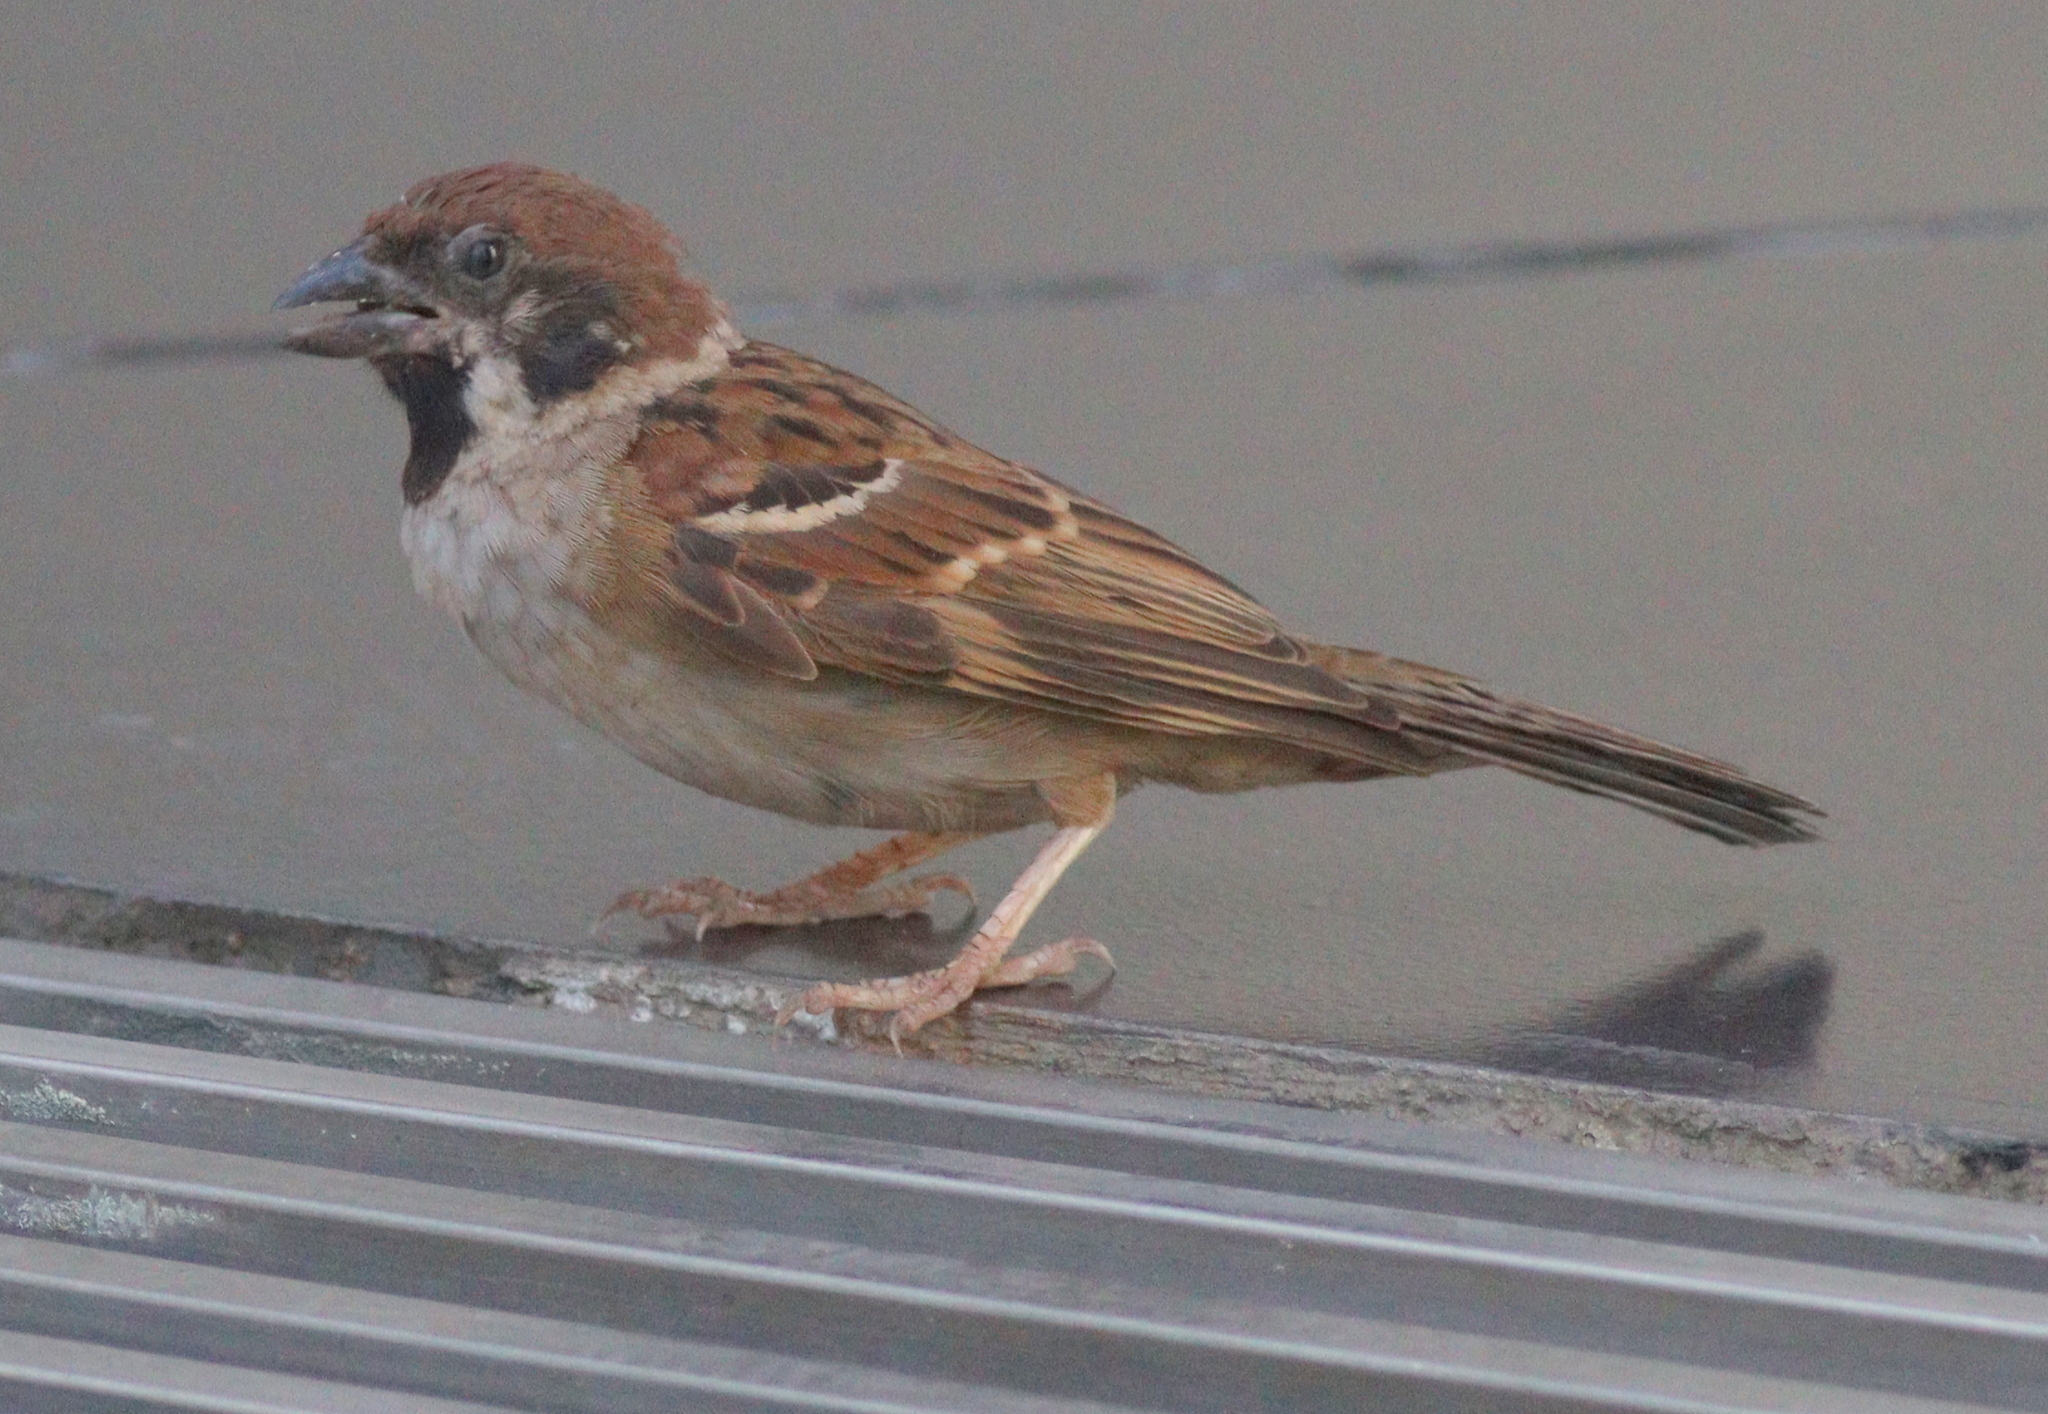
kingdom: Animalia
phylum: Chordata
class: Aves
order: Passeriformes
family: Passeridae
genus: Passer
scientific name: Passer montanus
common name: Eurasian tree sparrow
